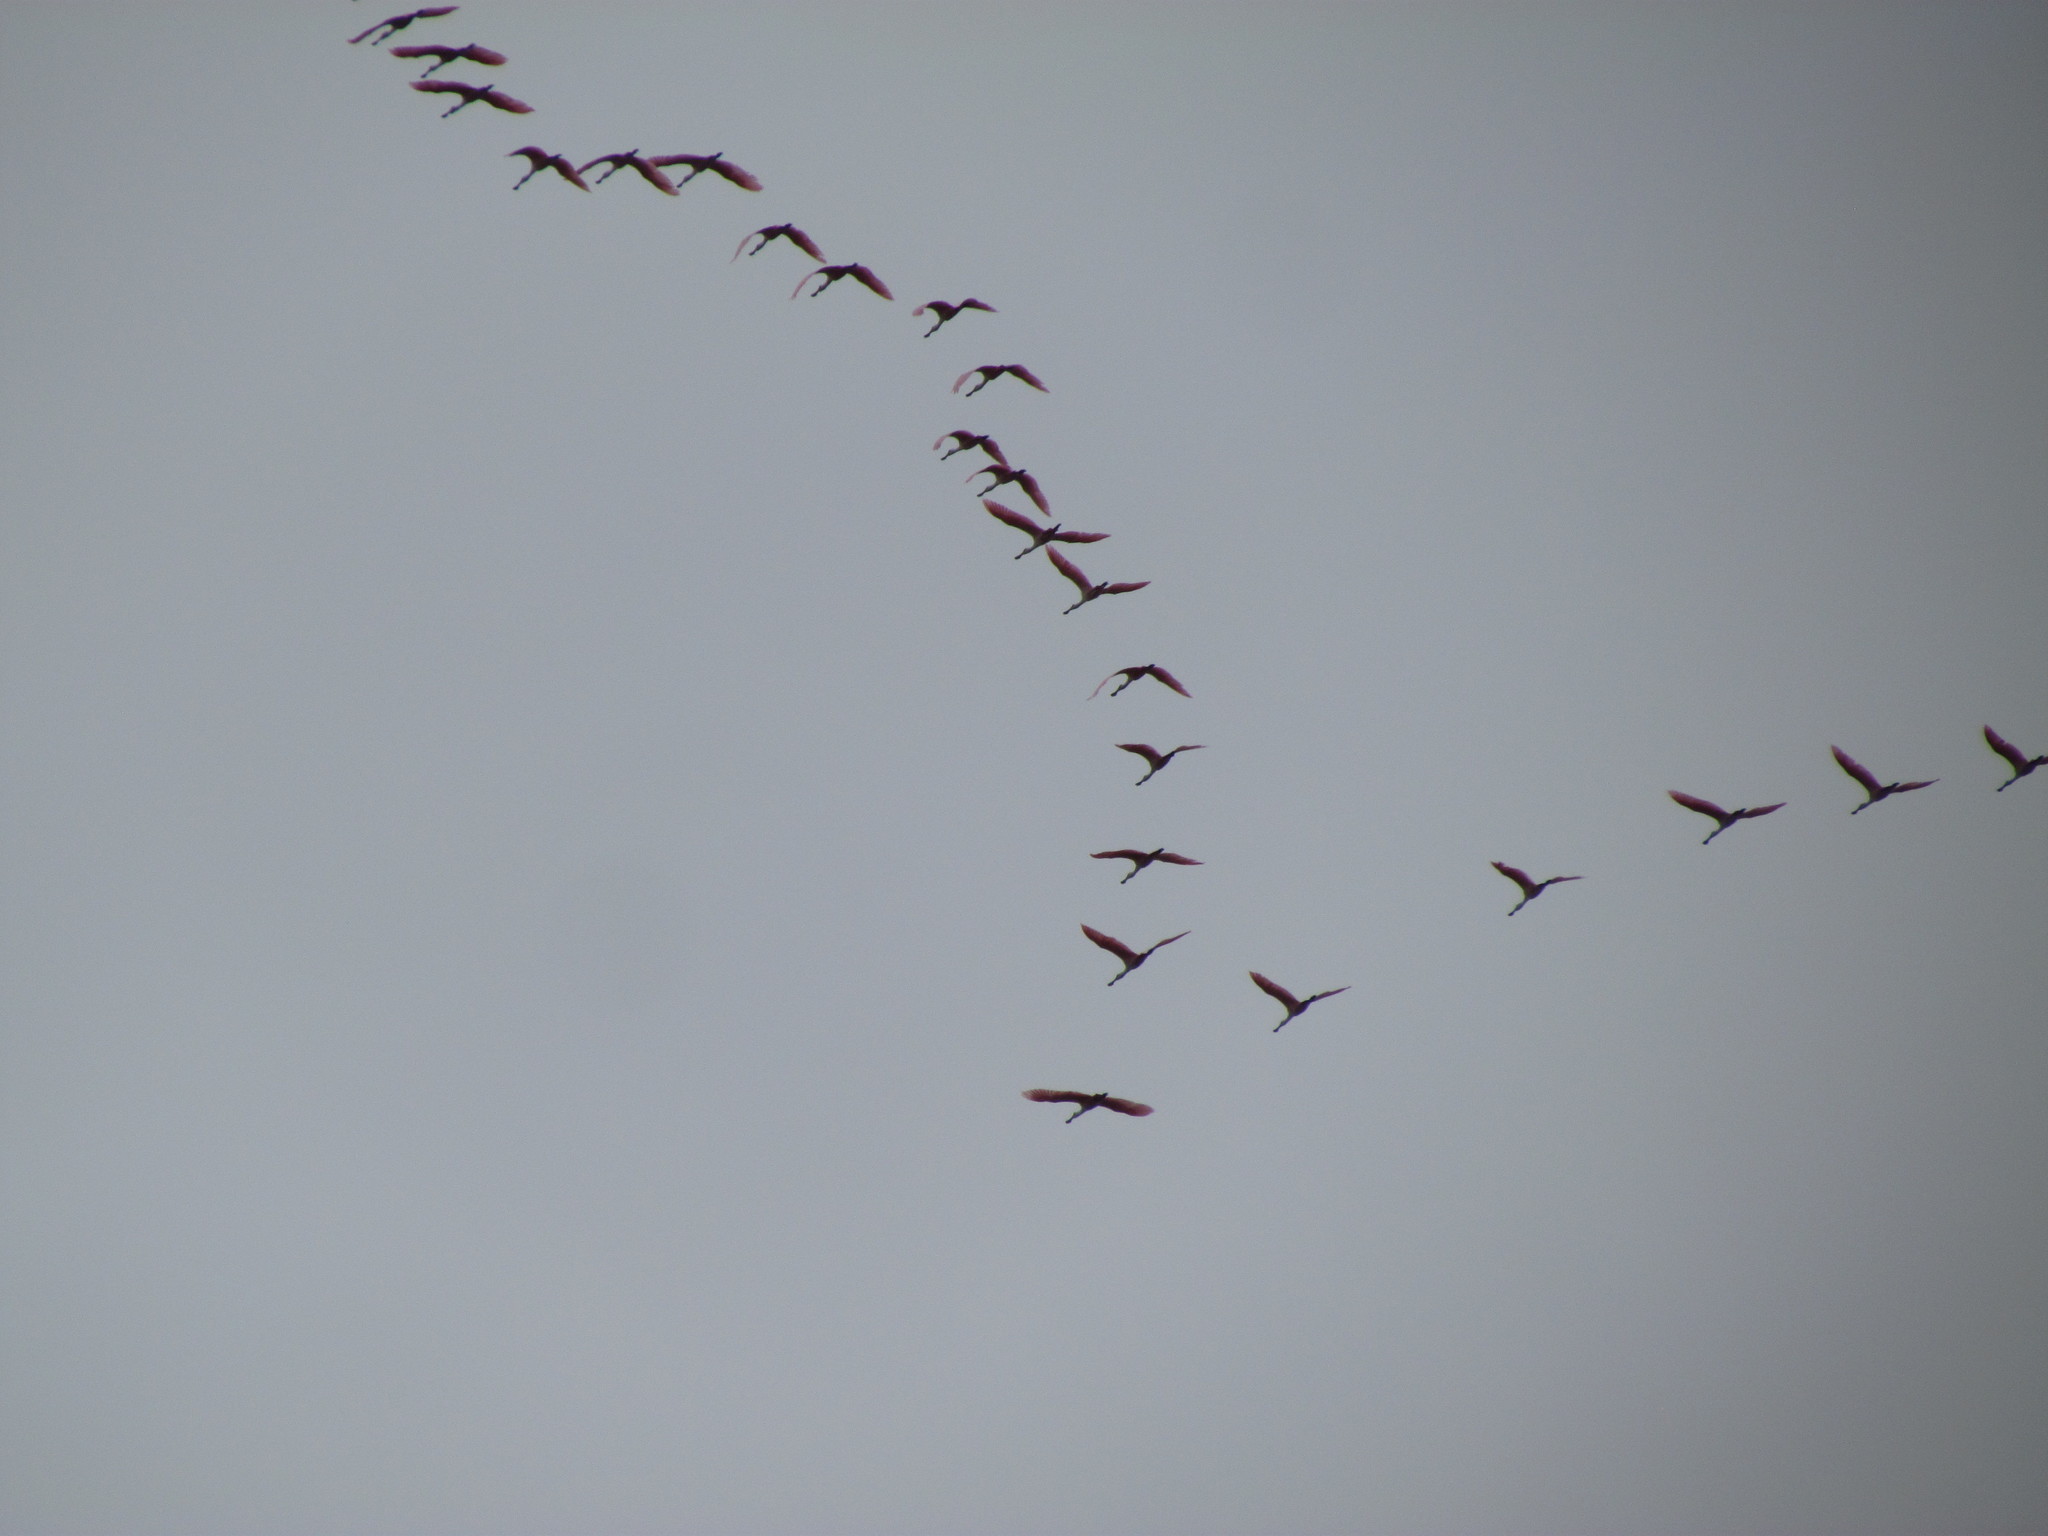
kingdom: Animalia
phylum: Chordata
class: Aves
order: Pelecaniformes
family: Threskiornithidae
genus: Platalea
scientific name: Platalea ajaja
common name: Roseate spoonbill
